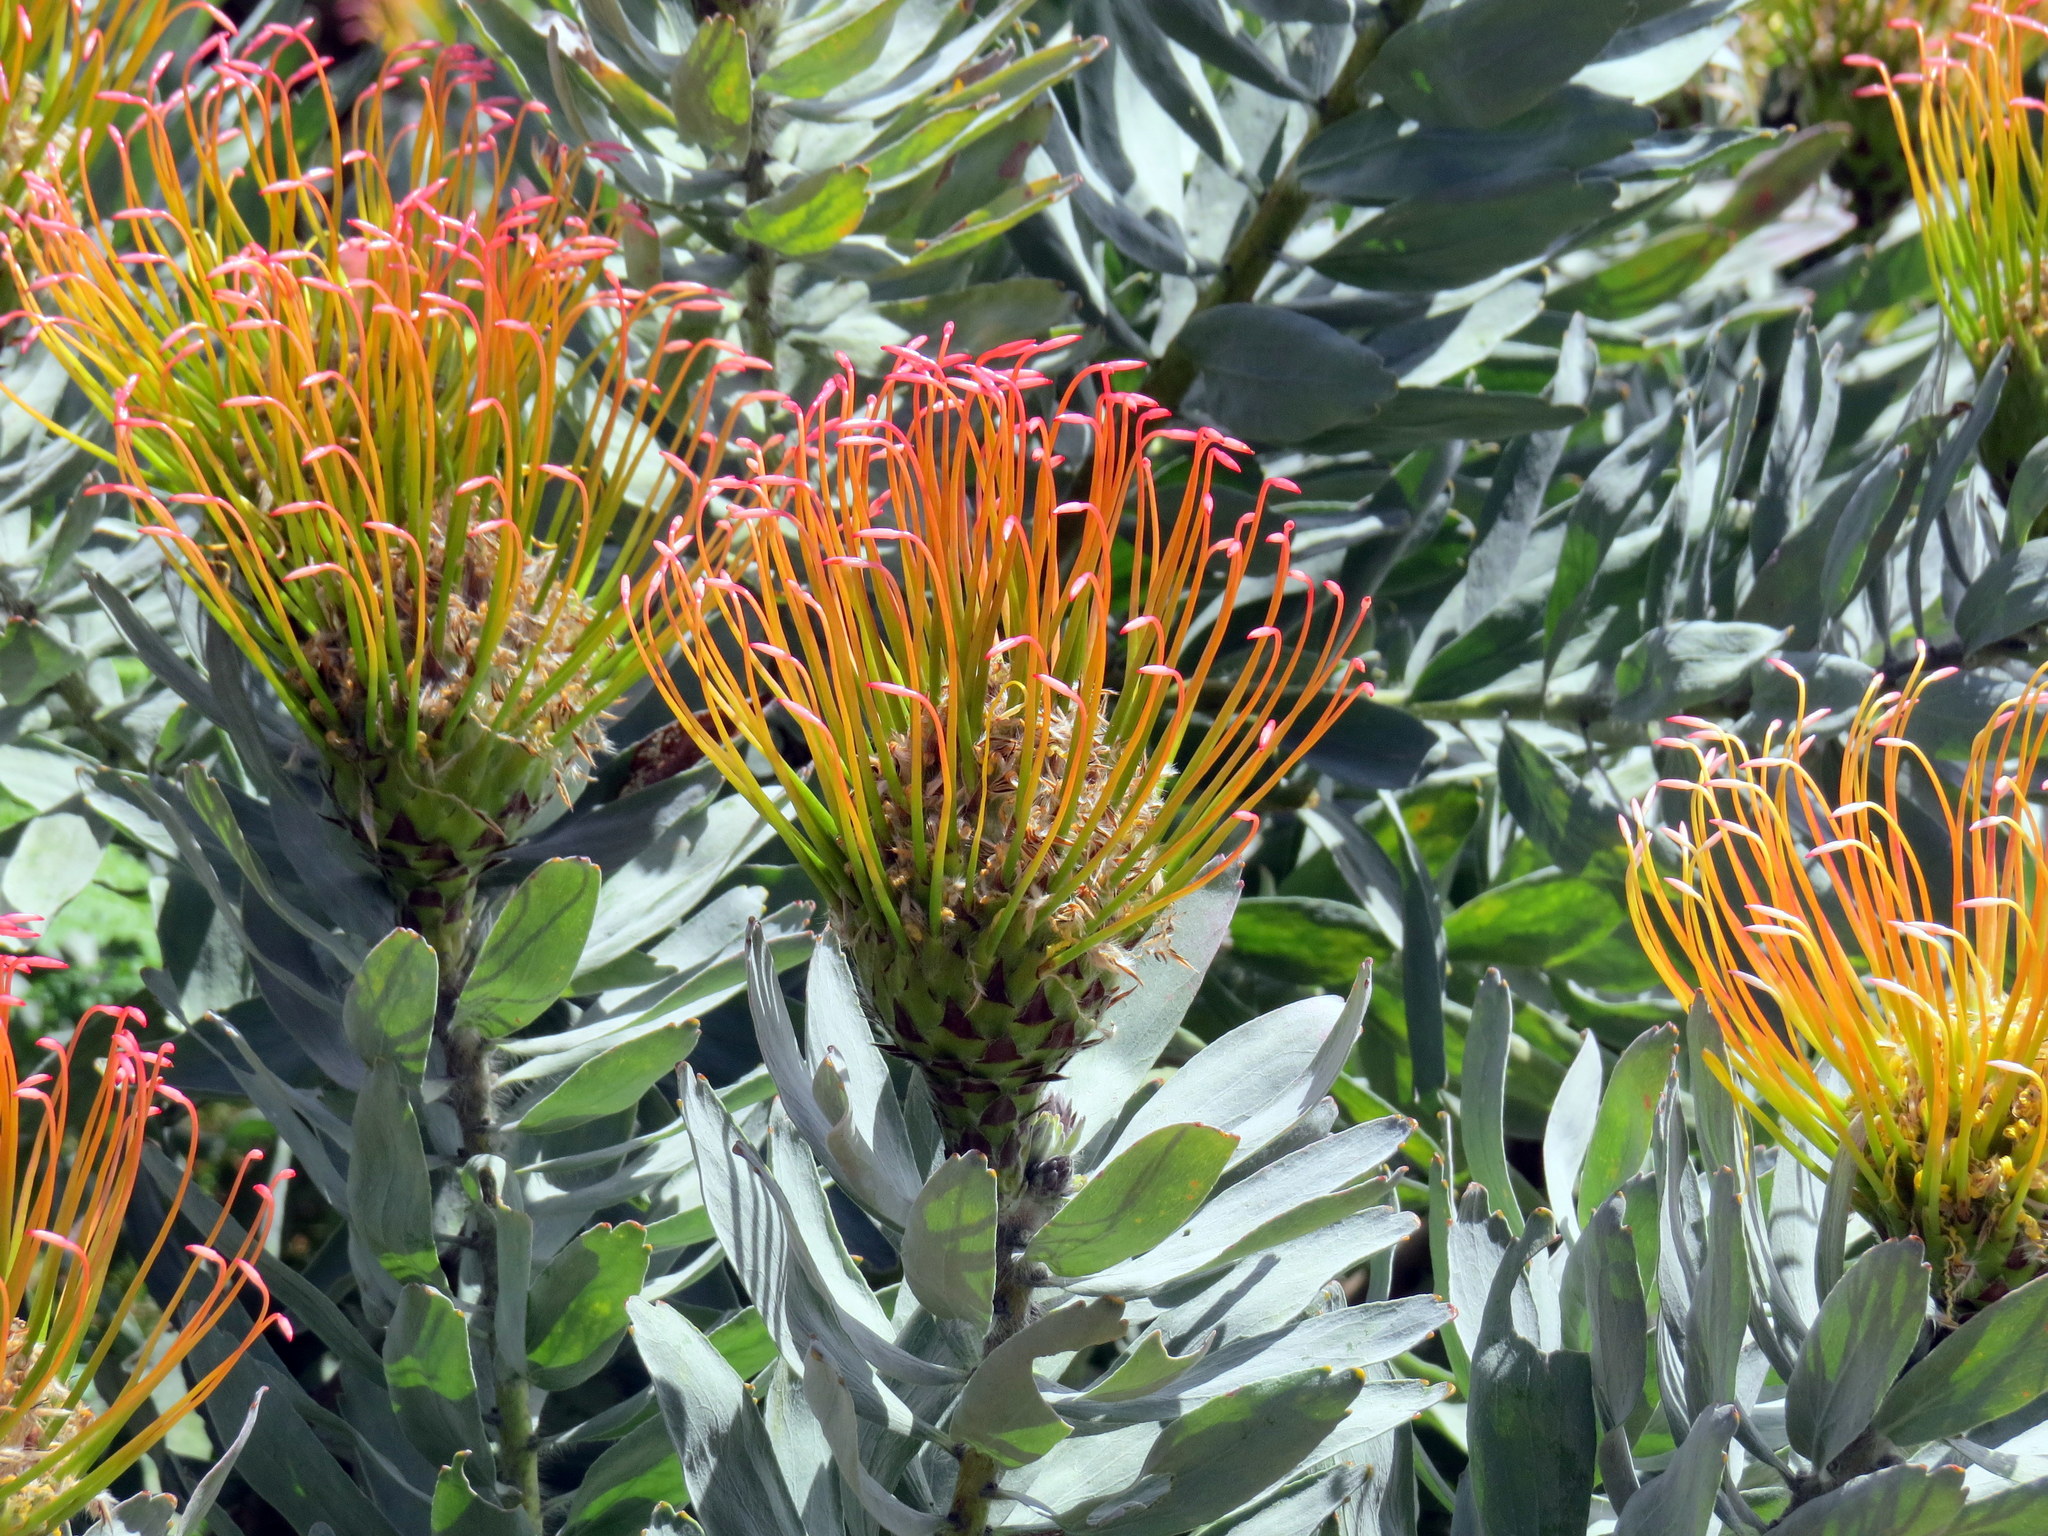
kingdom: Plantae
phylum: Tracheophyta
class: Magnoliopsida
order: Proteales
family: Proteaceae
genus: Leucospermum
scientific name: Leucospermum gueinzii
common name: Kloof fountain pincushion
